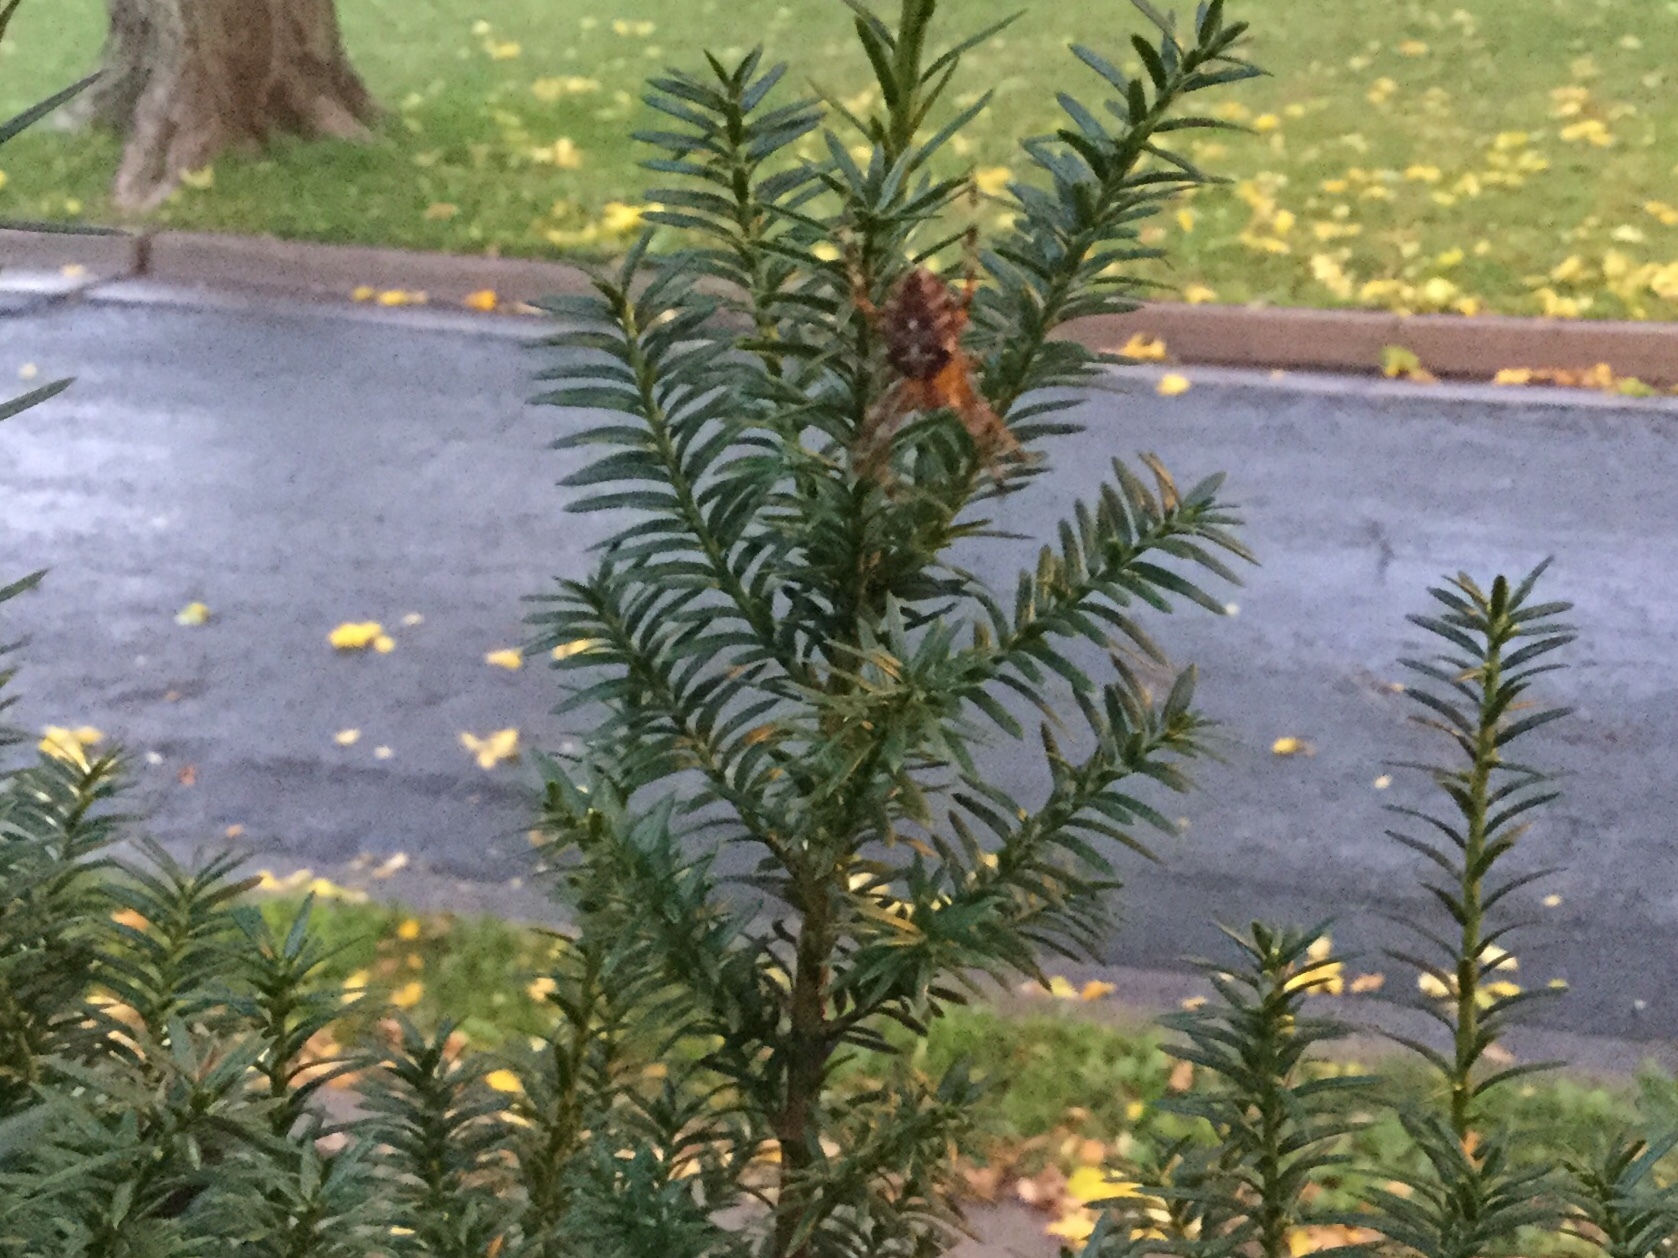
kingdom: Animalia
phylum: Arthropoda
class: Arachnida
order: Araneae
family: Araneidae
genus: Araneus
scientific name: Araneus diadematus
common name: Cross orbweaver
